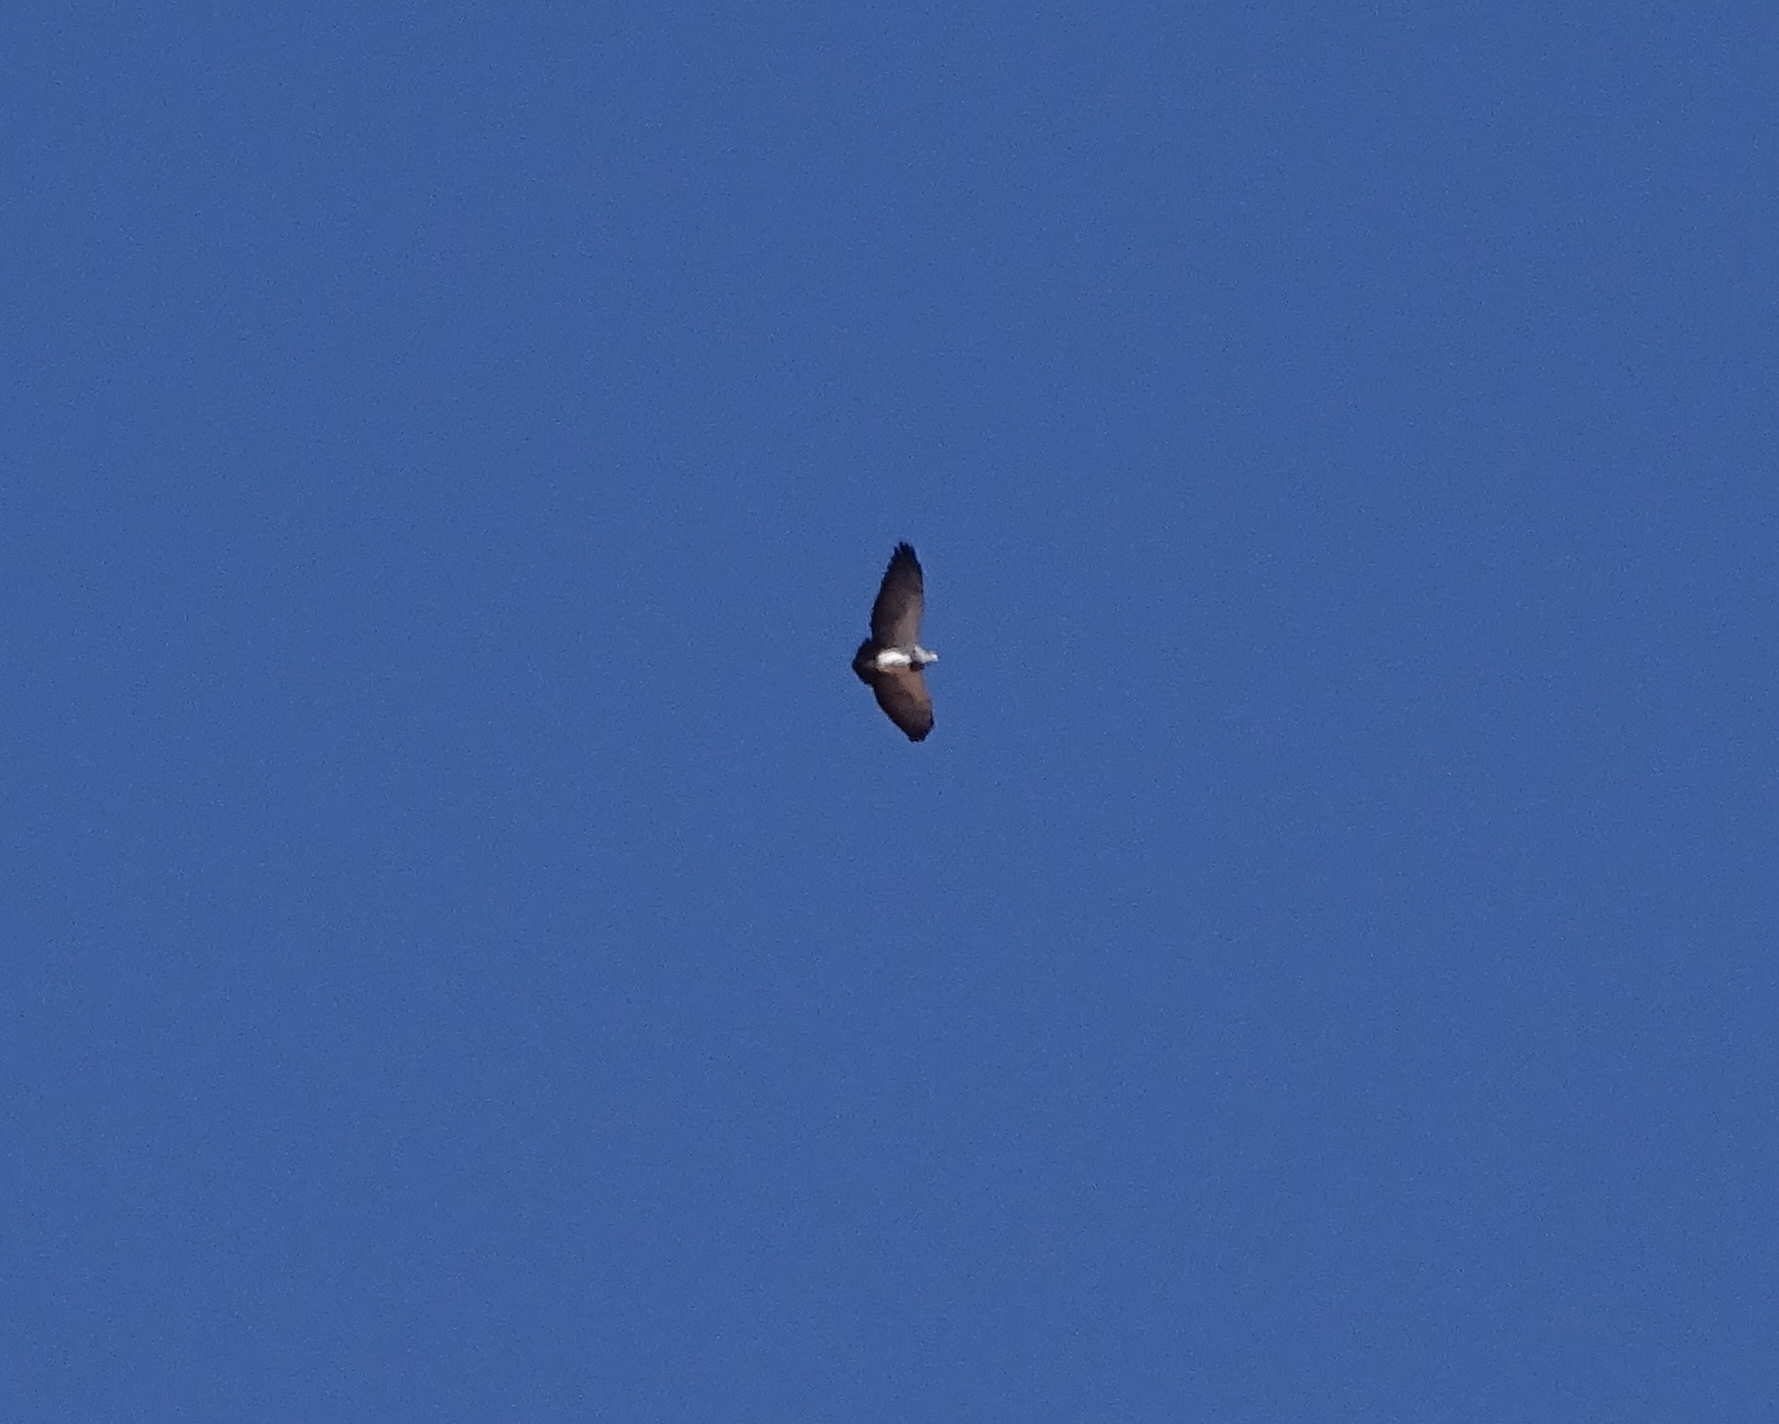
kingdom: Animalia
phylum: Chordata
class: Aves
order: Accipitriformes
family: Accipitridae
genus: Geranoaetus
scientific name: Geranoaetus melanoleucus
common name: Black-chested buzzard-eagle
